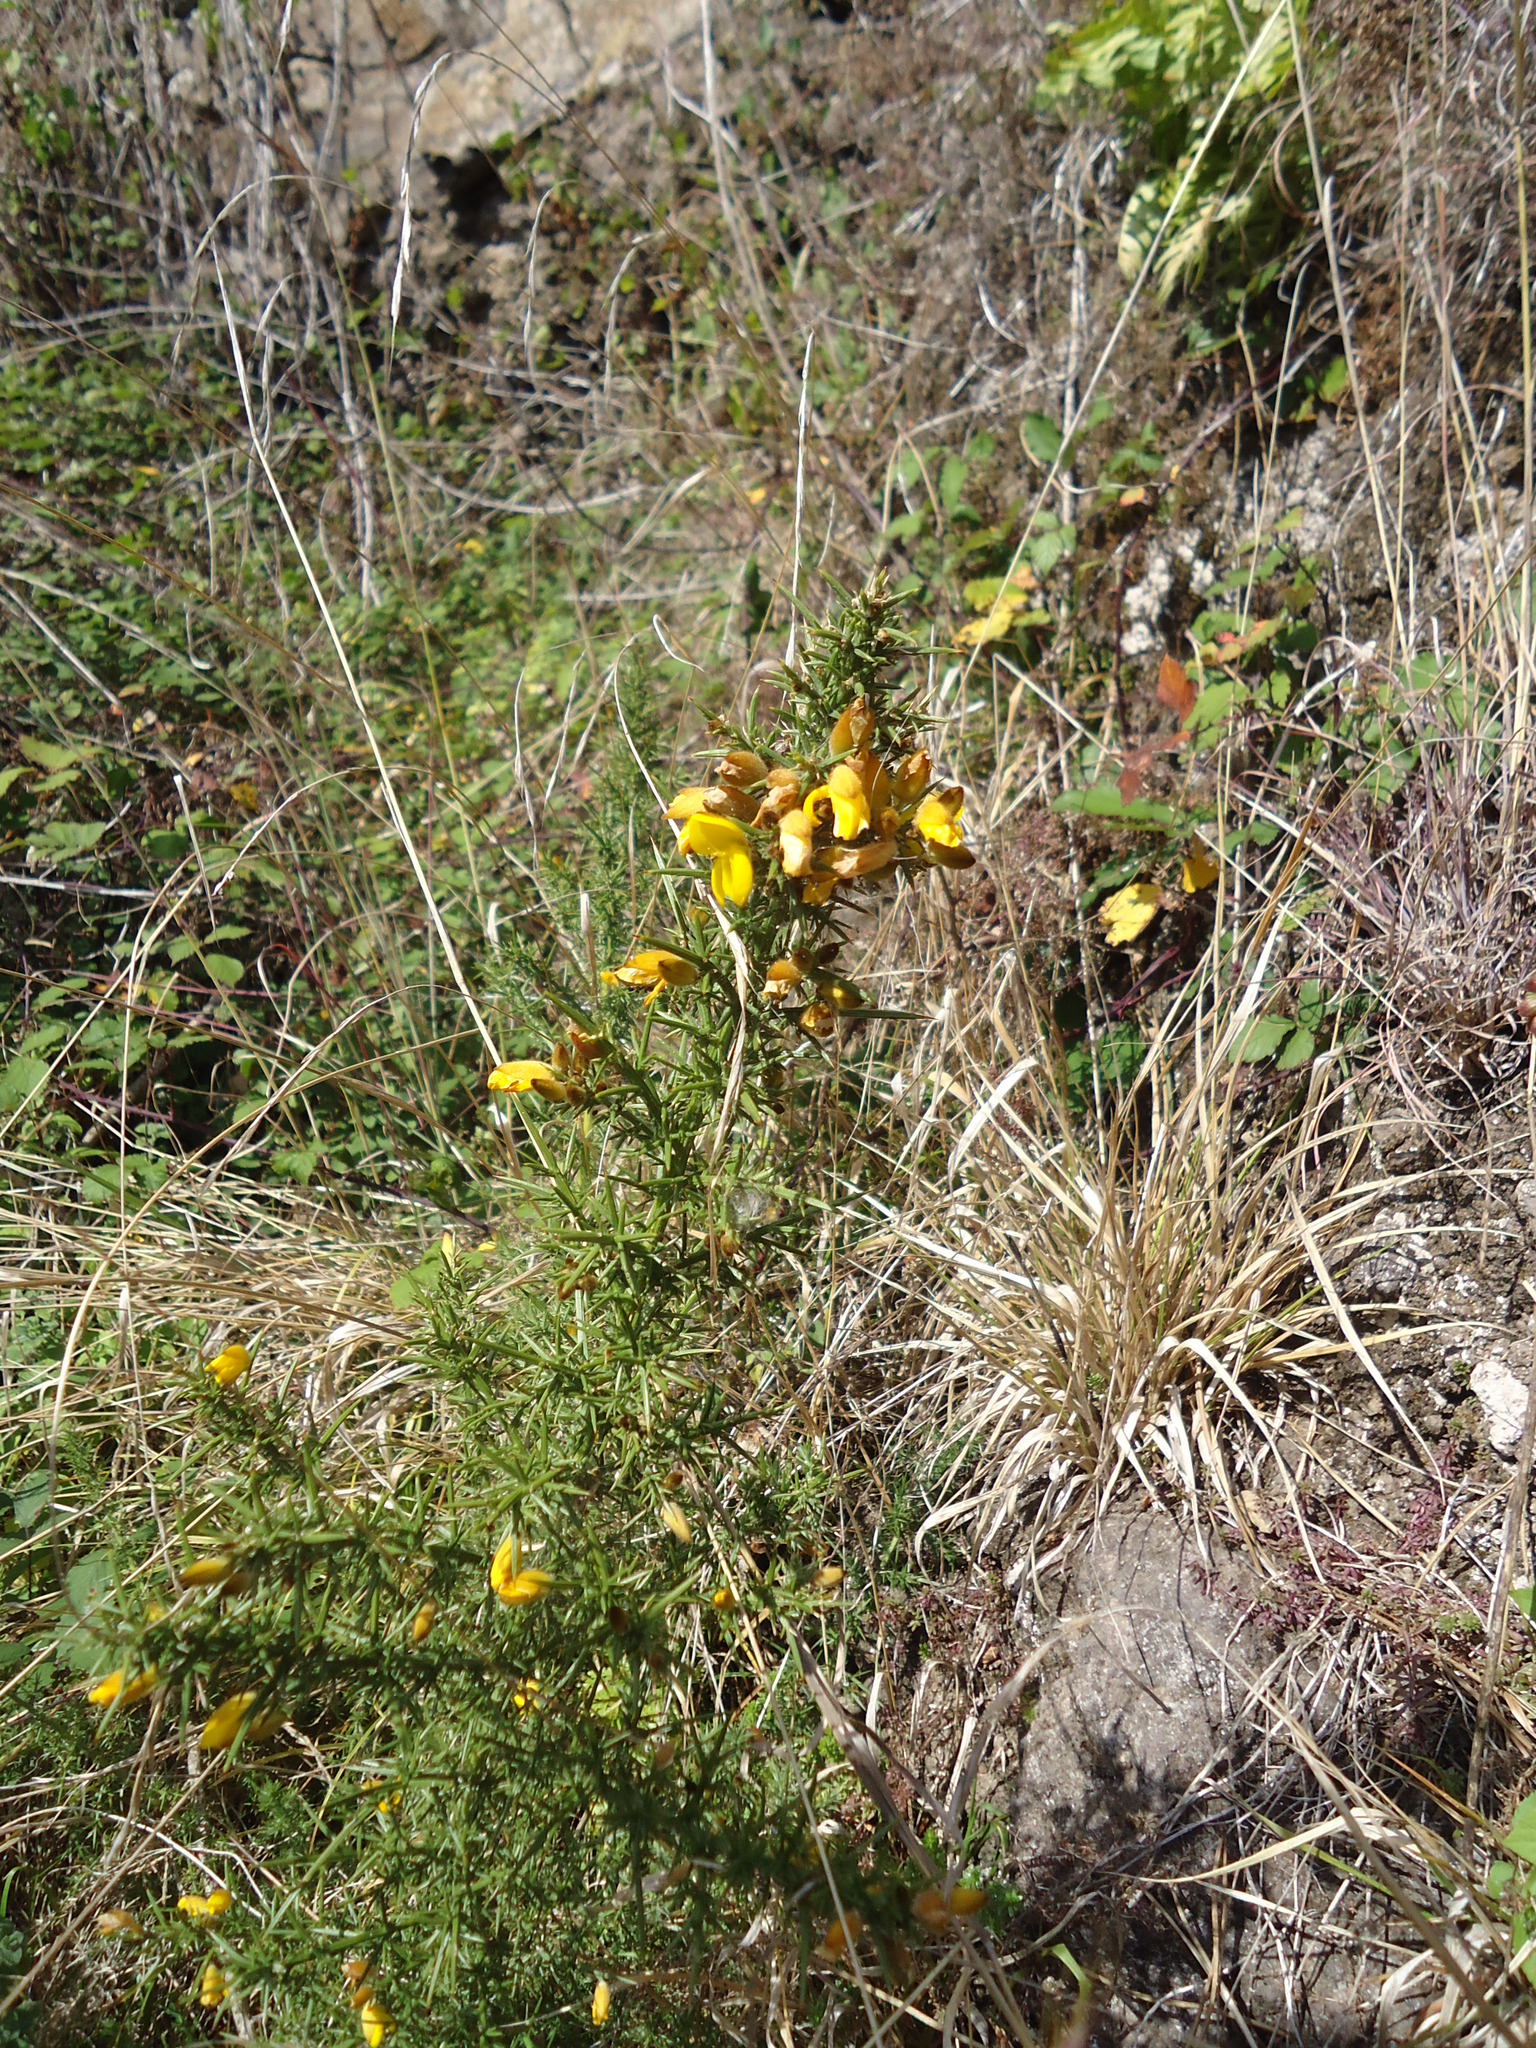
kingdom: Plantae
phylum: Tracheophyta
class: Magnoliopsida
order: Fabales
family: Fabaceae
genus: Ulex
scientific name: Ulex europaeus
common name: Common gorse
